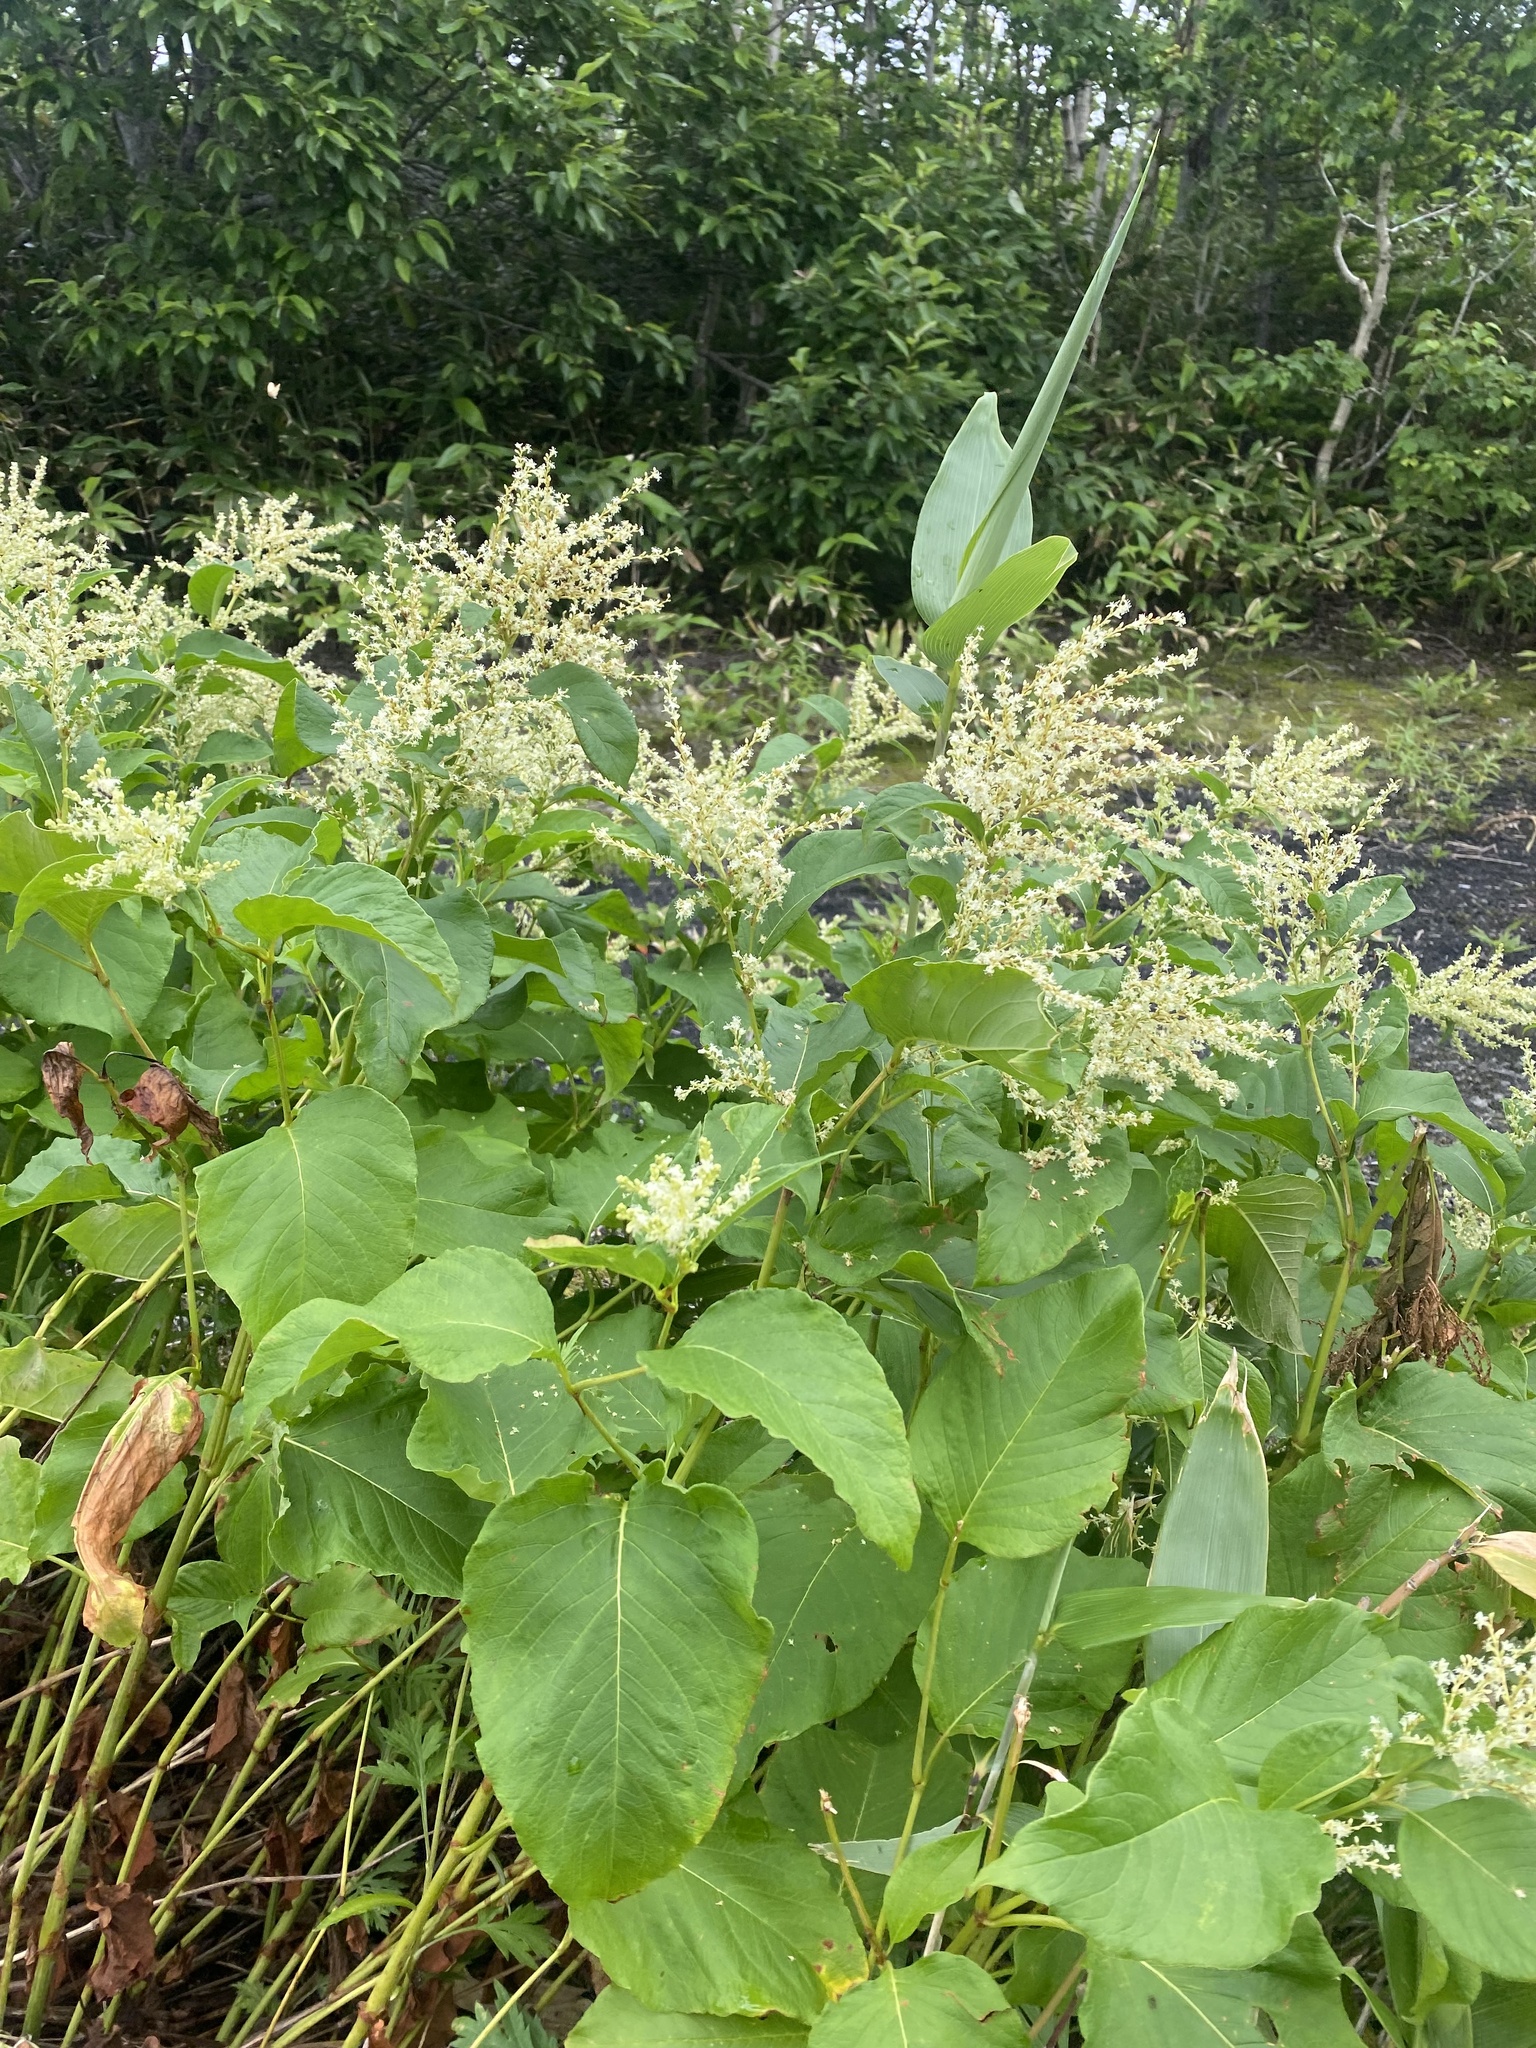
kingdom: Plantae
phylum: Tracheophyta
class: Magnoliopsida
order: Caryophyllales
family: Polygonaceae
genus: Koenigia
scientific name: Koenigia weyrichii
